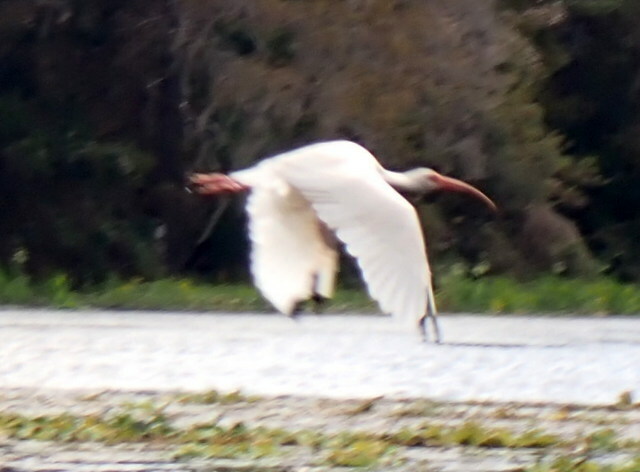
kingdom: Animalia
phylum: Chordata
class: Aves
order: Pelecaniformes
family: Threskiornithidae
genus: Eudocimus
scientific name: Eudocimus albus
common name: White ibis
